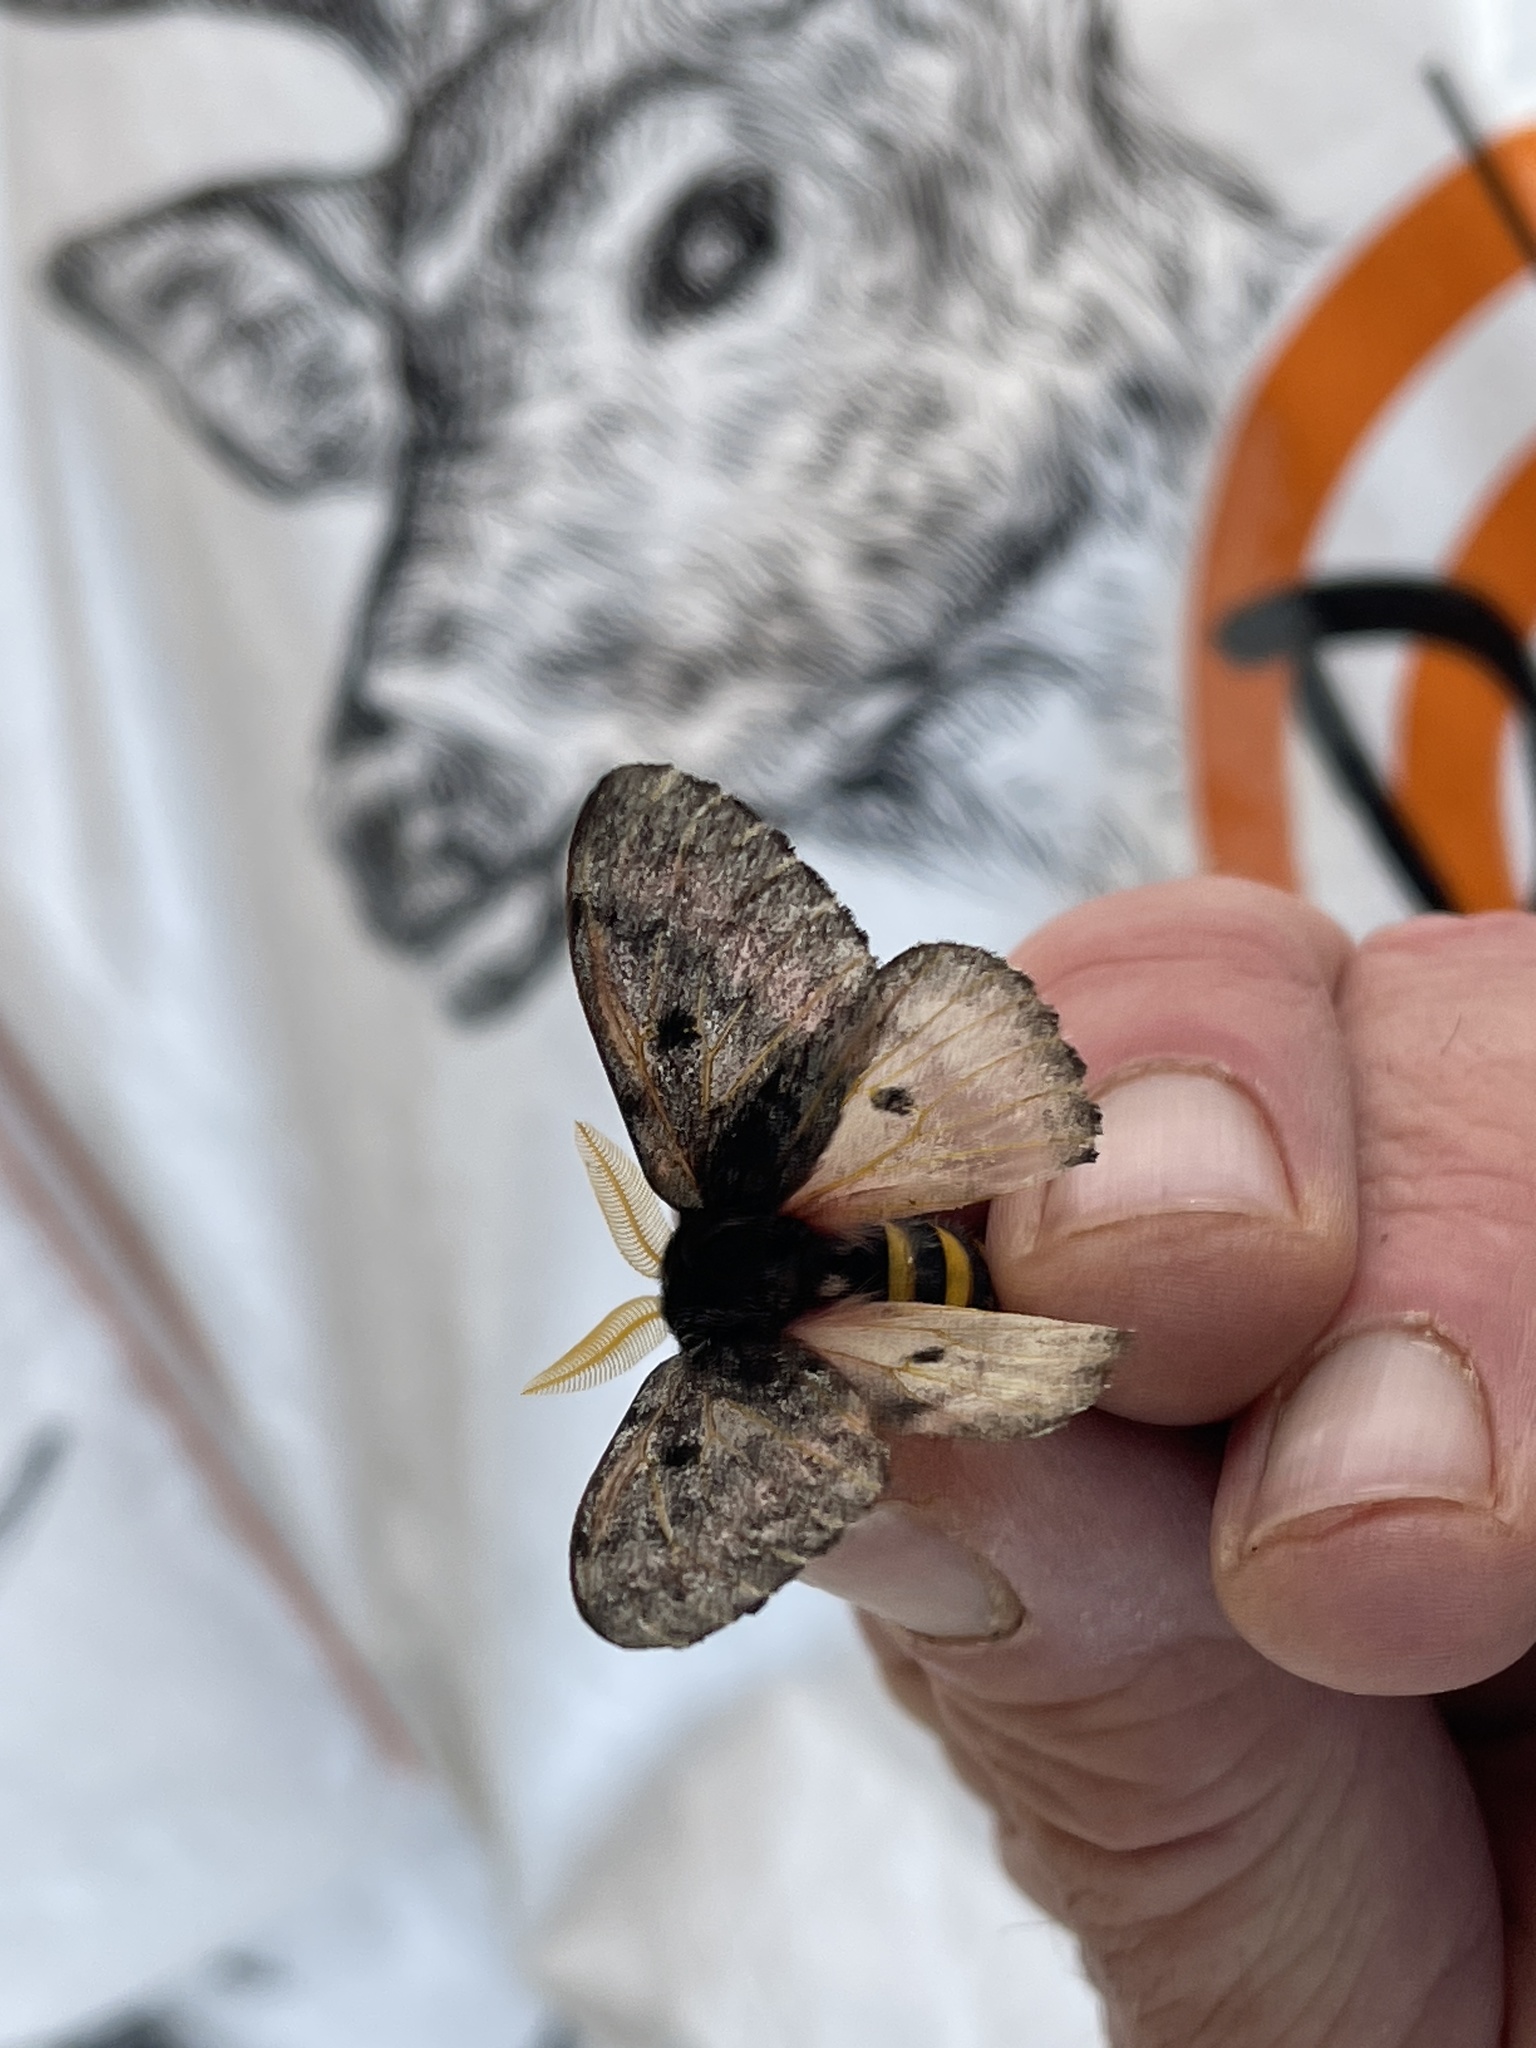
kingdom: Animalia
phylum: Arthropoda
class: Insecta
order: Lepidoptera
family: Saturniidae
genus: Coloradia
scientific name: Coloradia pandora
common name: Pandora pinemoth
